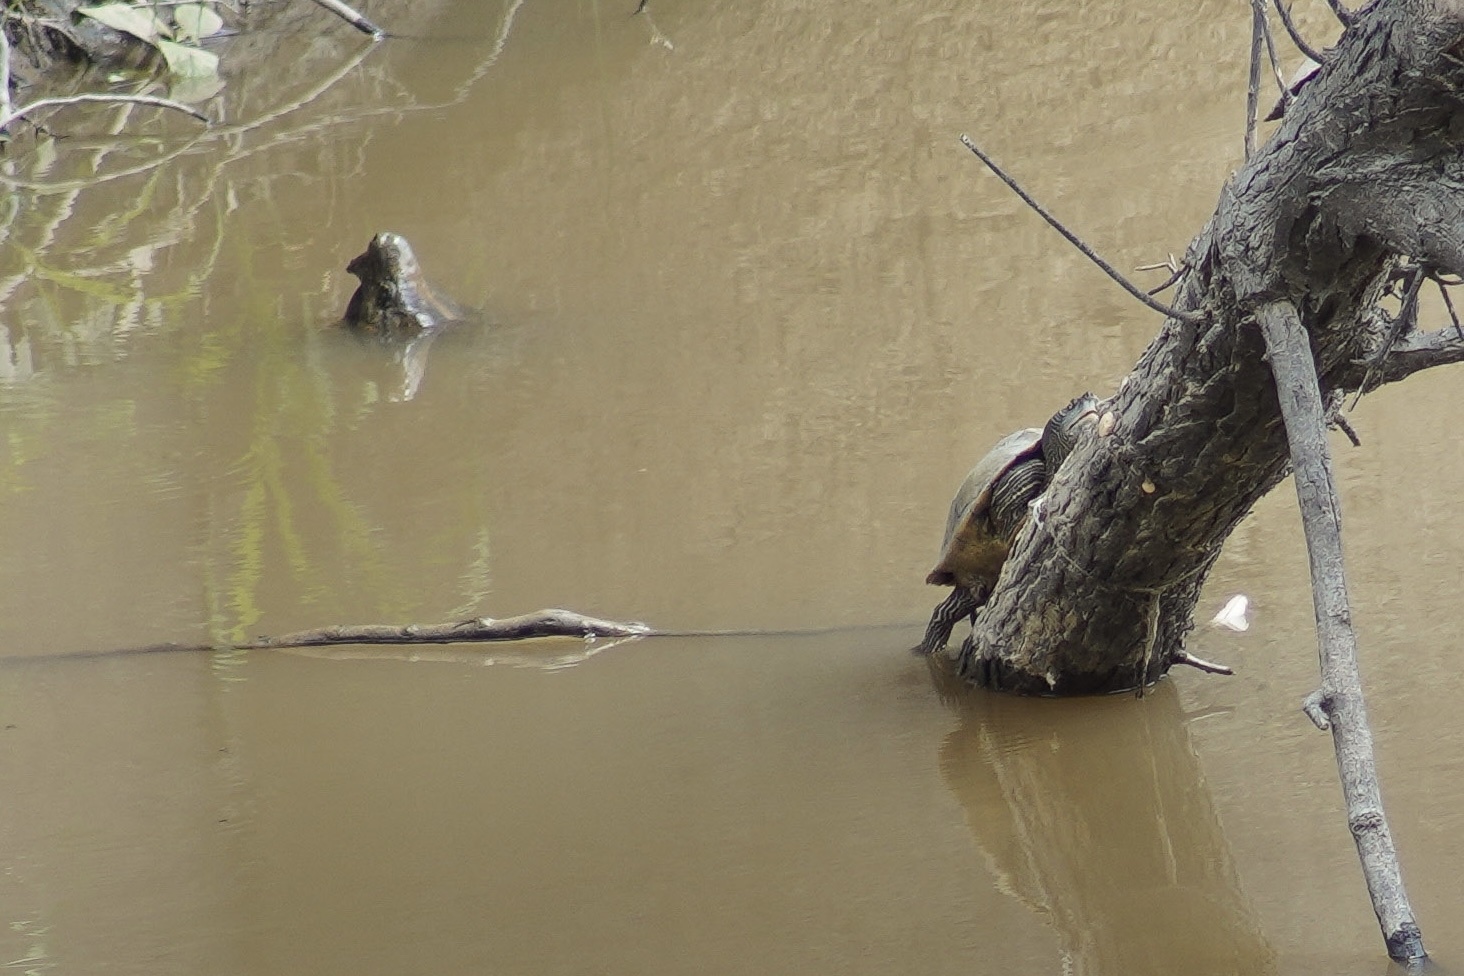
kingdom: Animalia
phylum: Chordata
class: Testudines
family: Chelydridae
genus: Macrochelys
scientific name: Macrochelys temminckii
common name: Alligator snapping turtle
